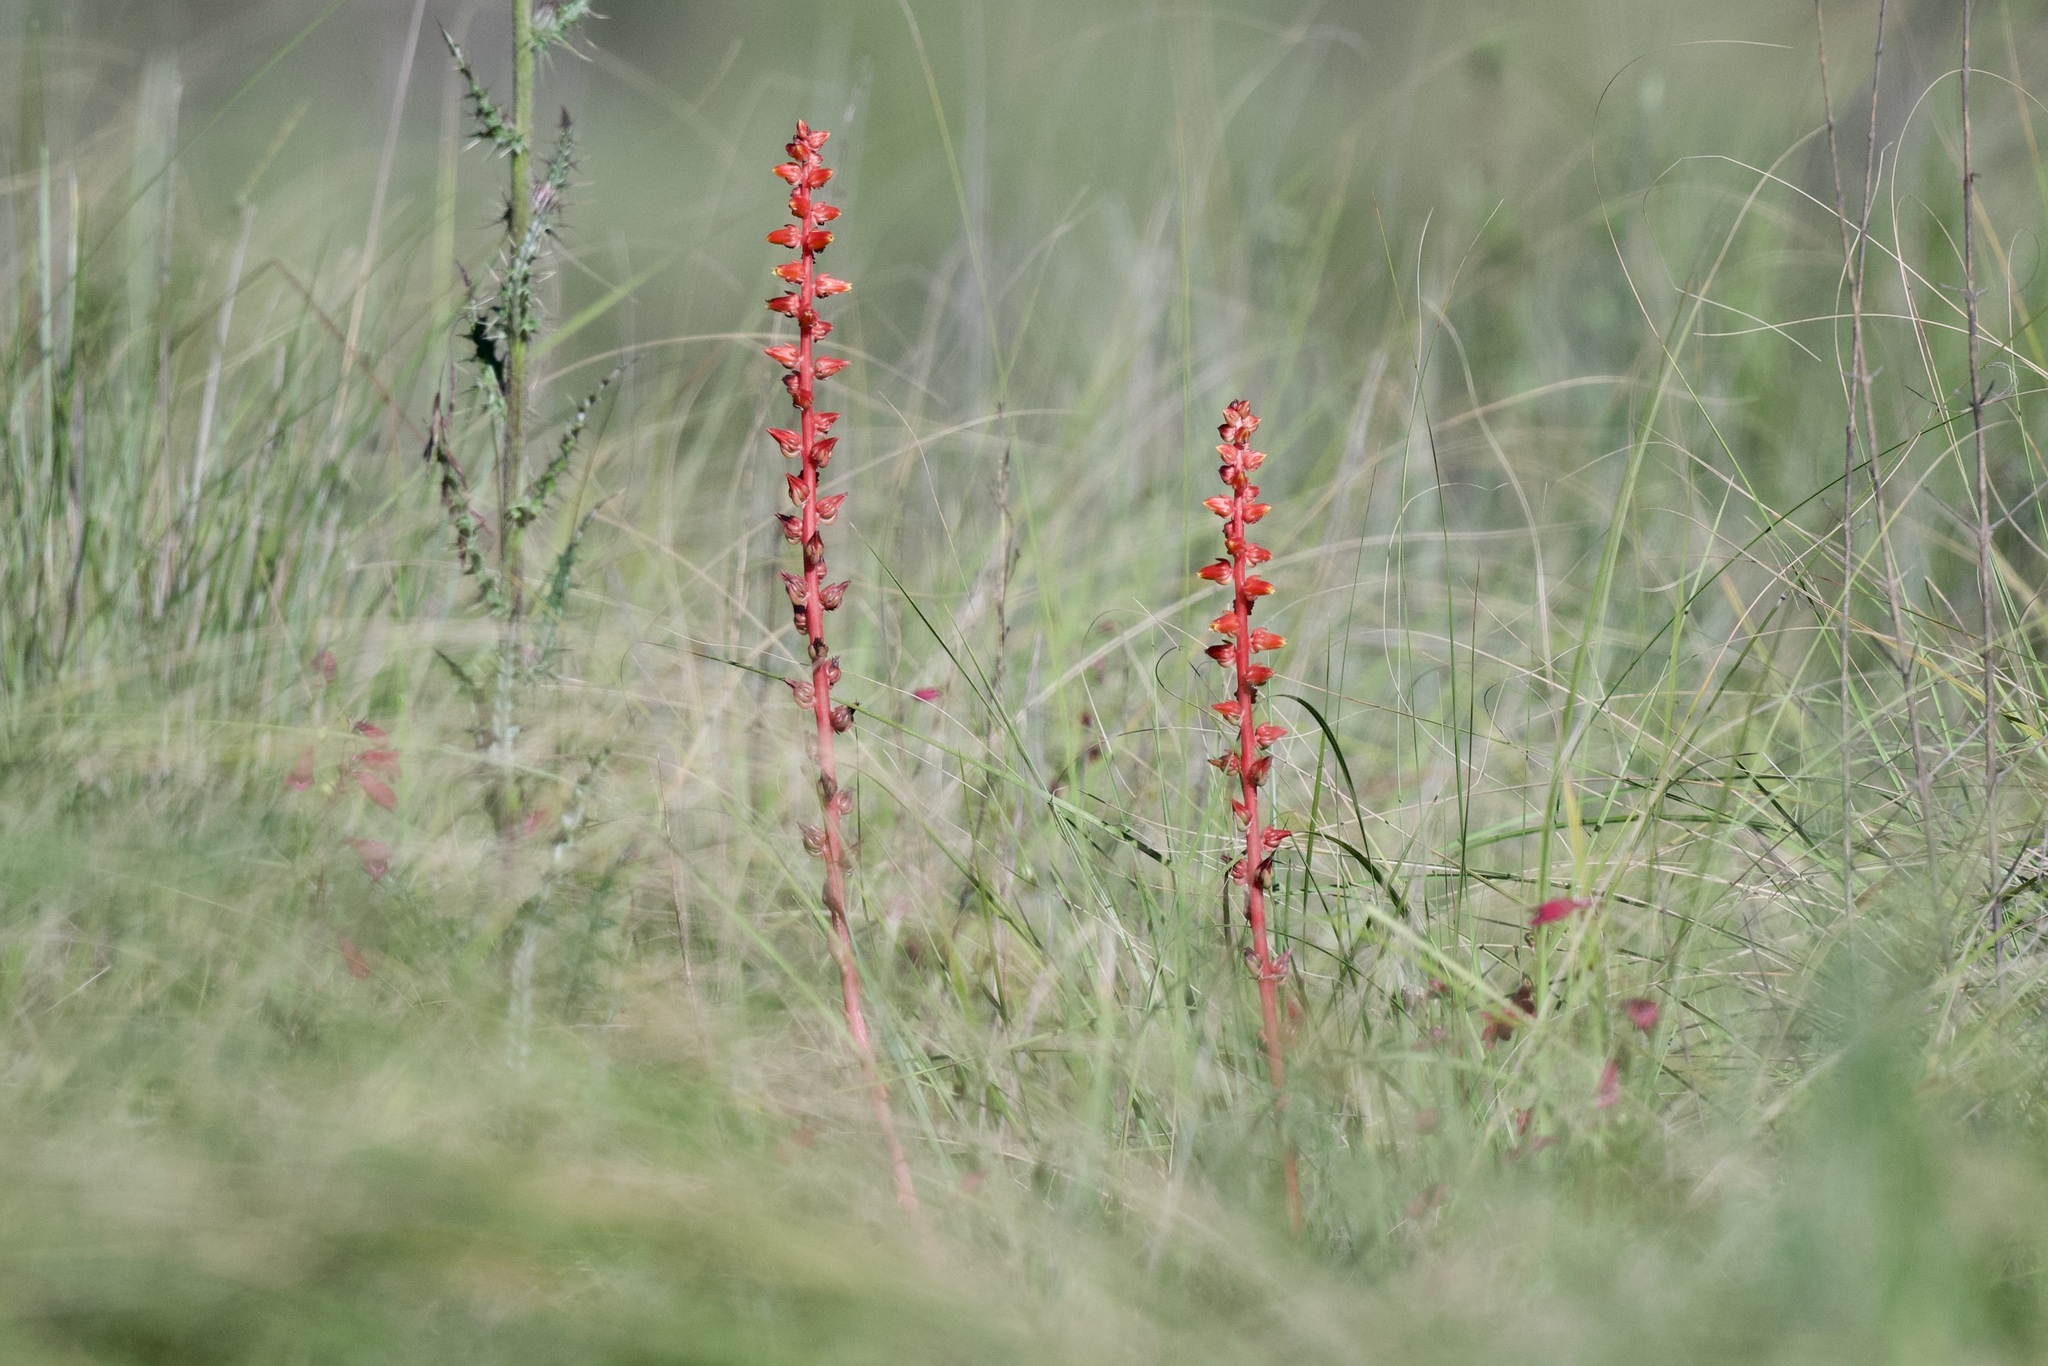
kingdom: Plantae
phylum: Tracheophyta
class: Magnoliopsida
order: Saxifragales
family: Crassulaceae
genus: Echeveria
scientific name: Echeveria mucronata
